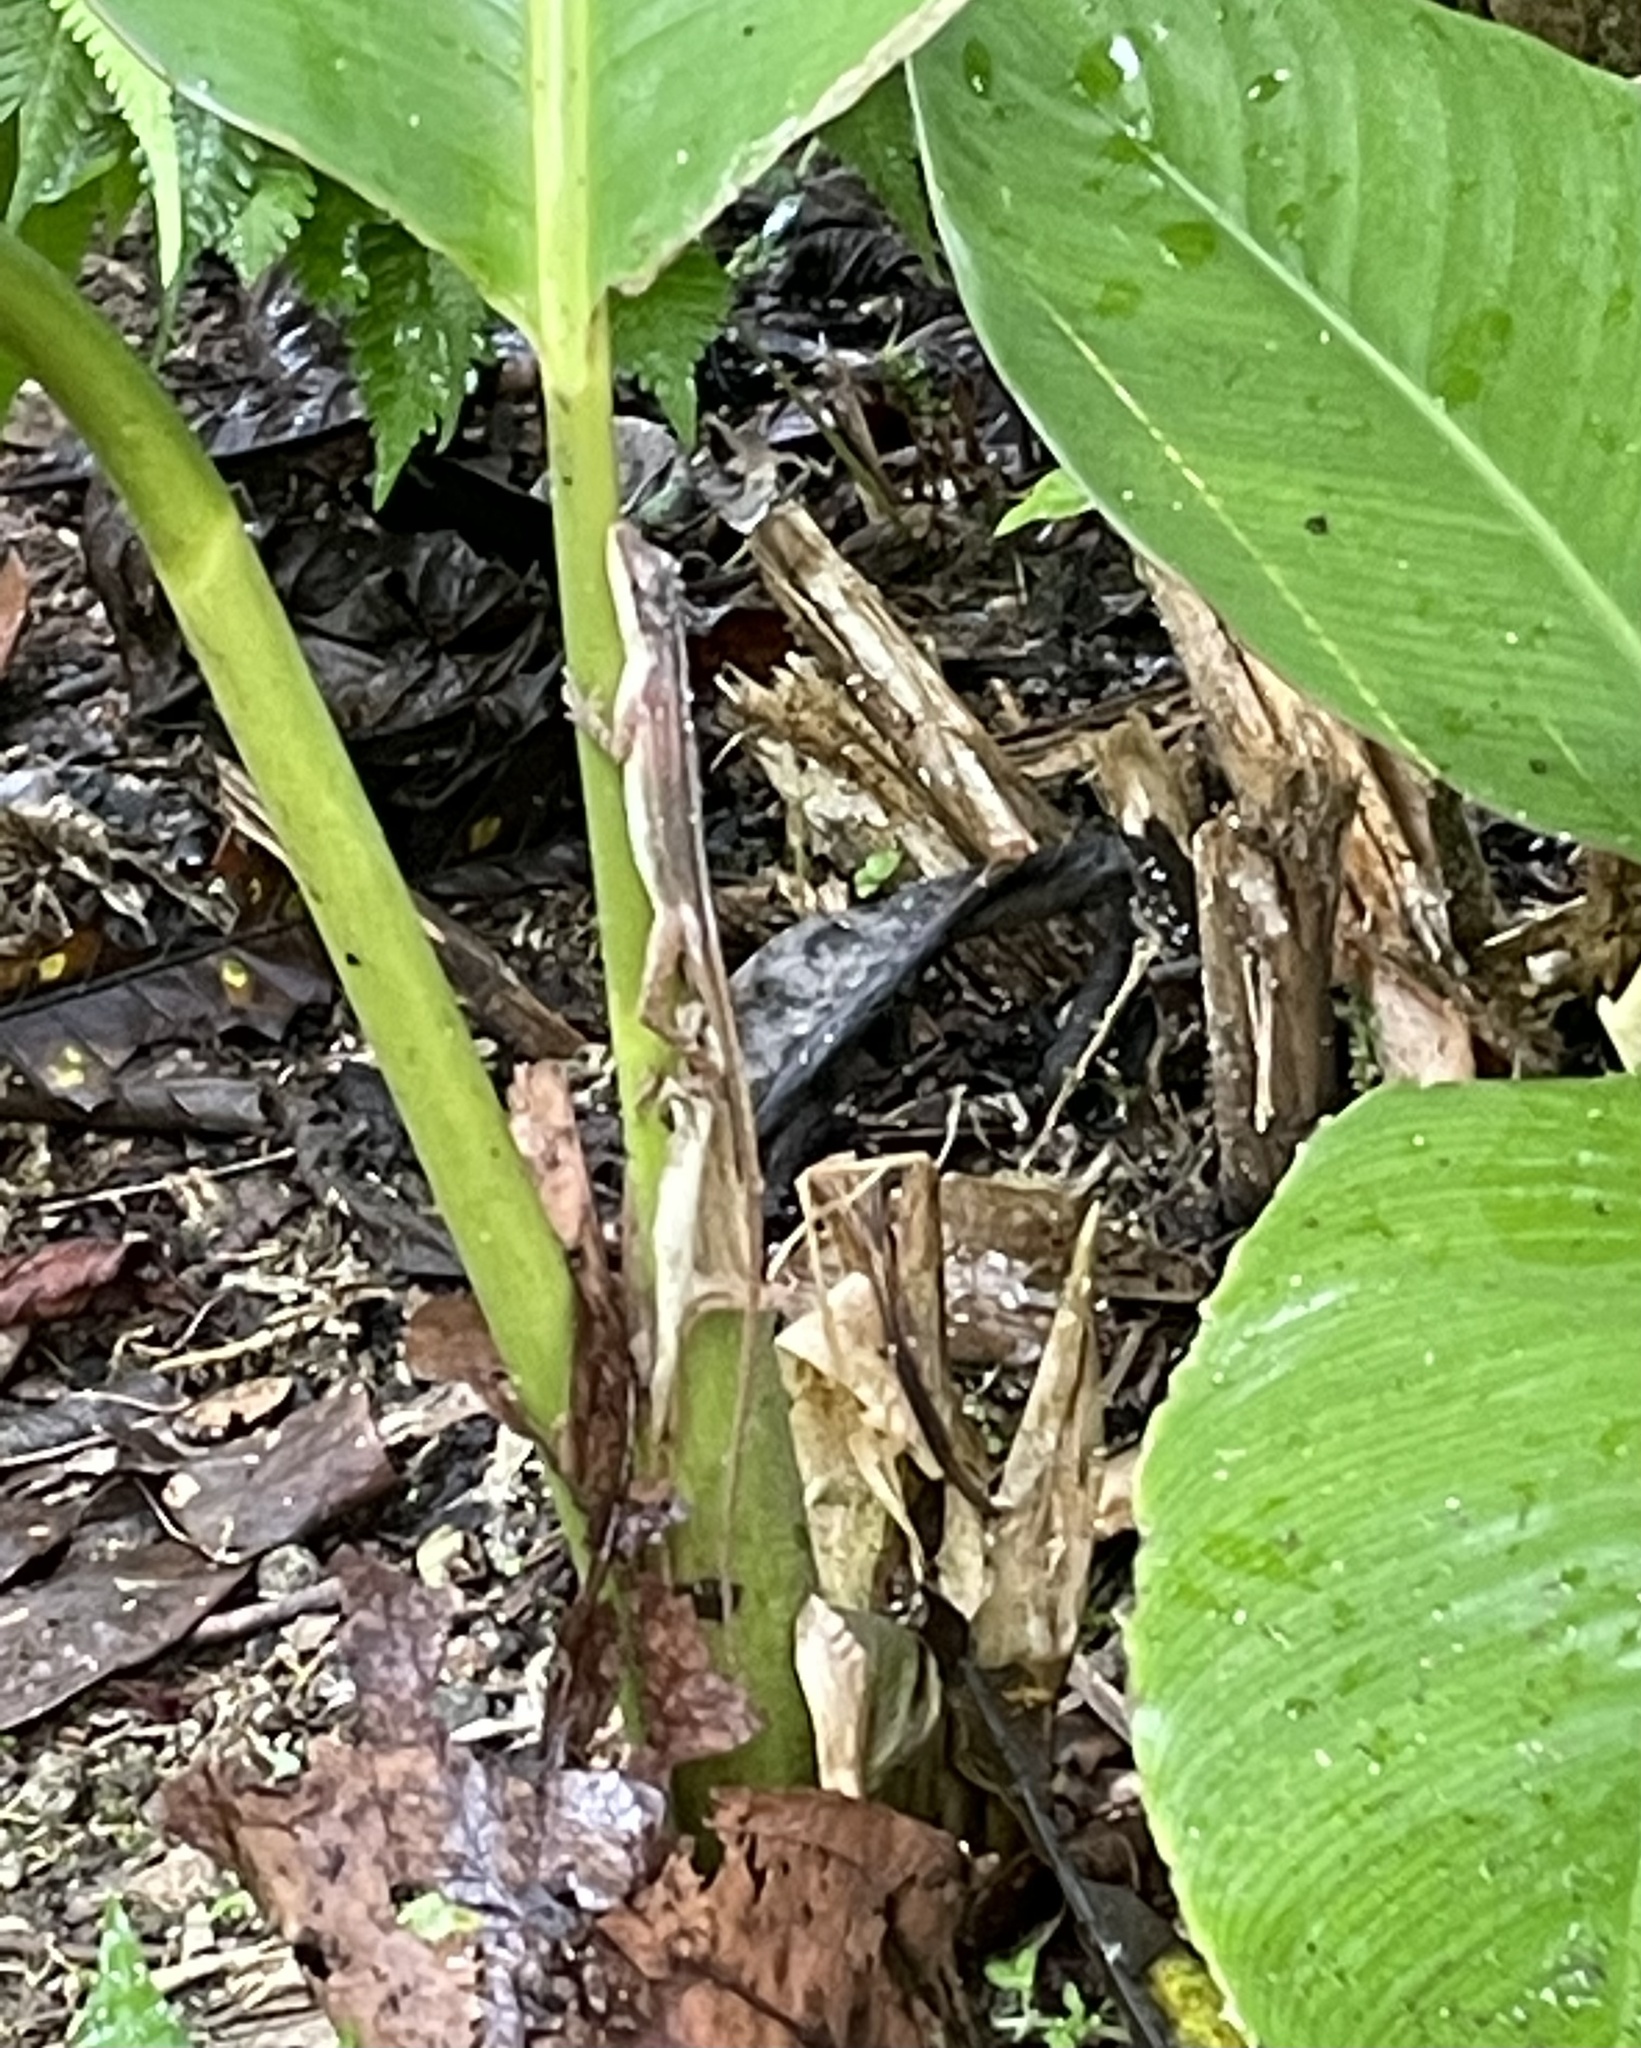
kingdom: Animalia
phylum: Chordata
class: Squamata
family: Dactyloidae
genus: Anolis
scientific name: Anolis limifrons
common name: Border anole
